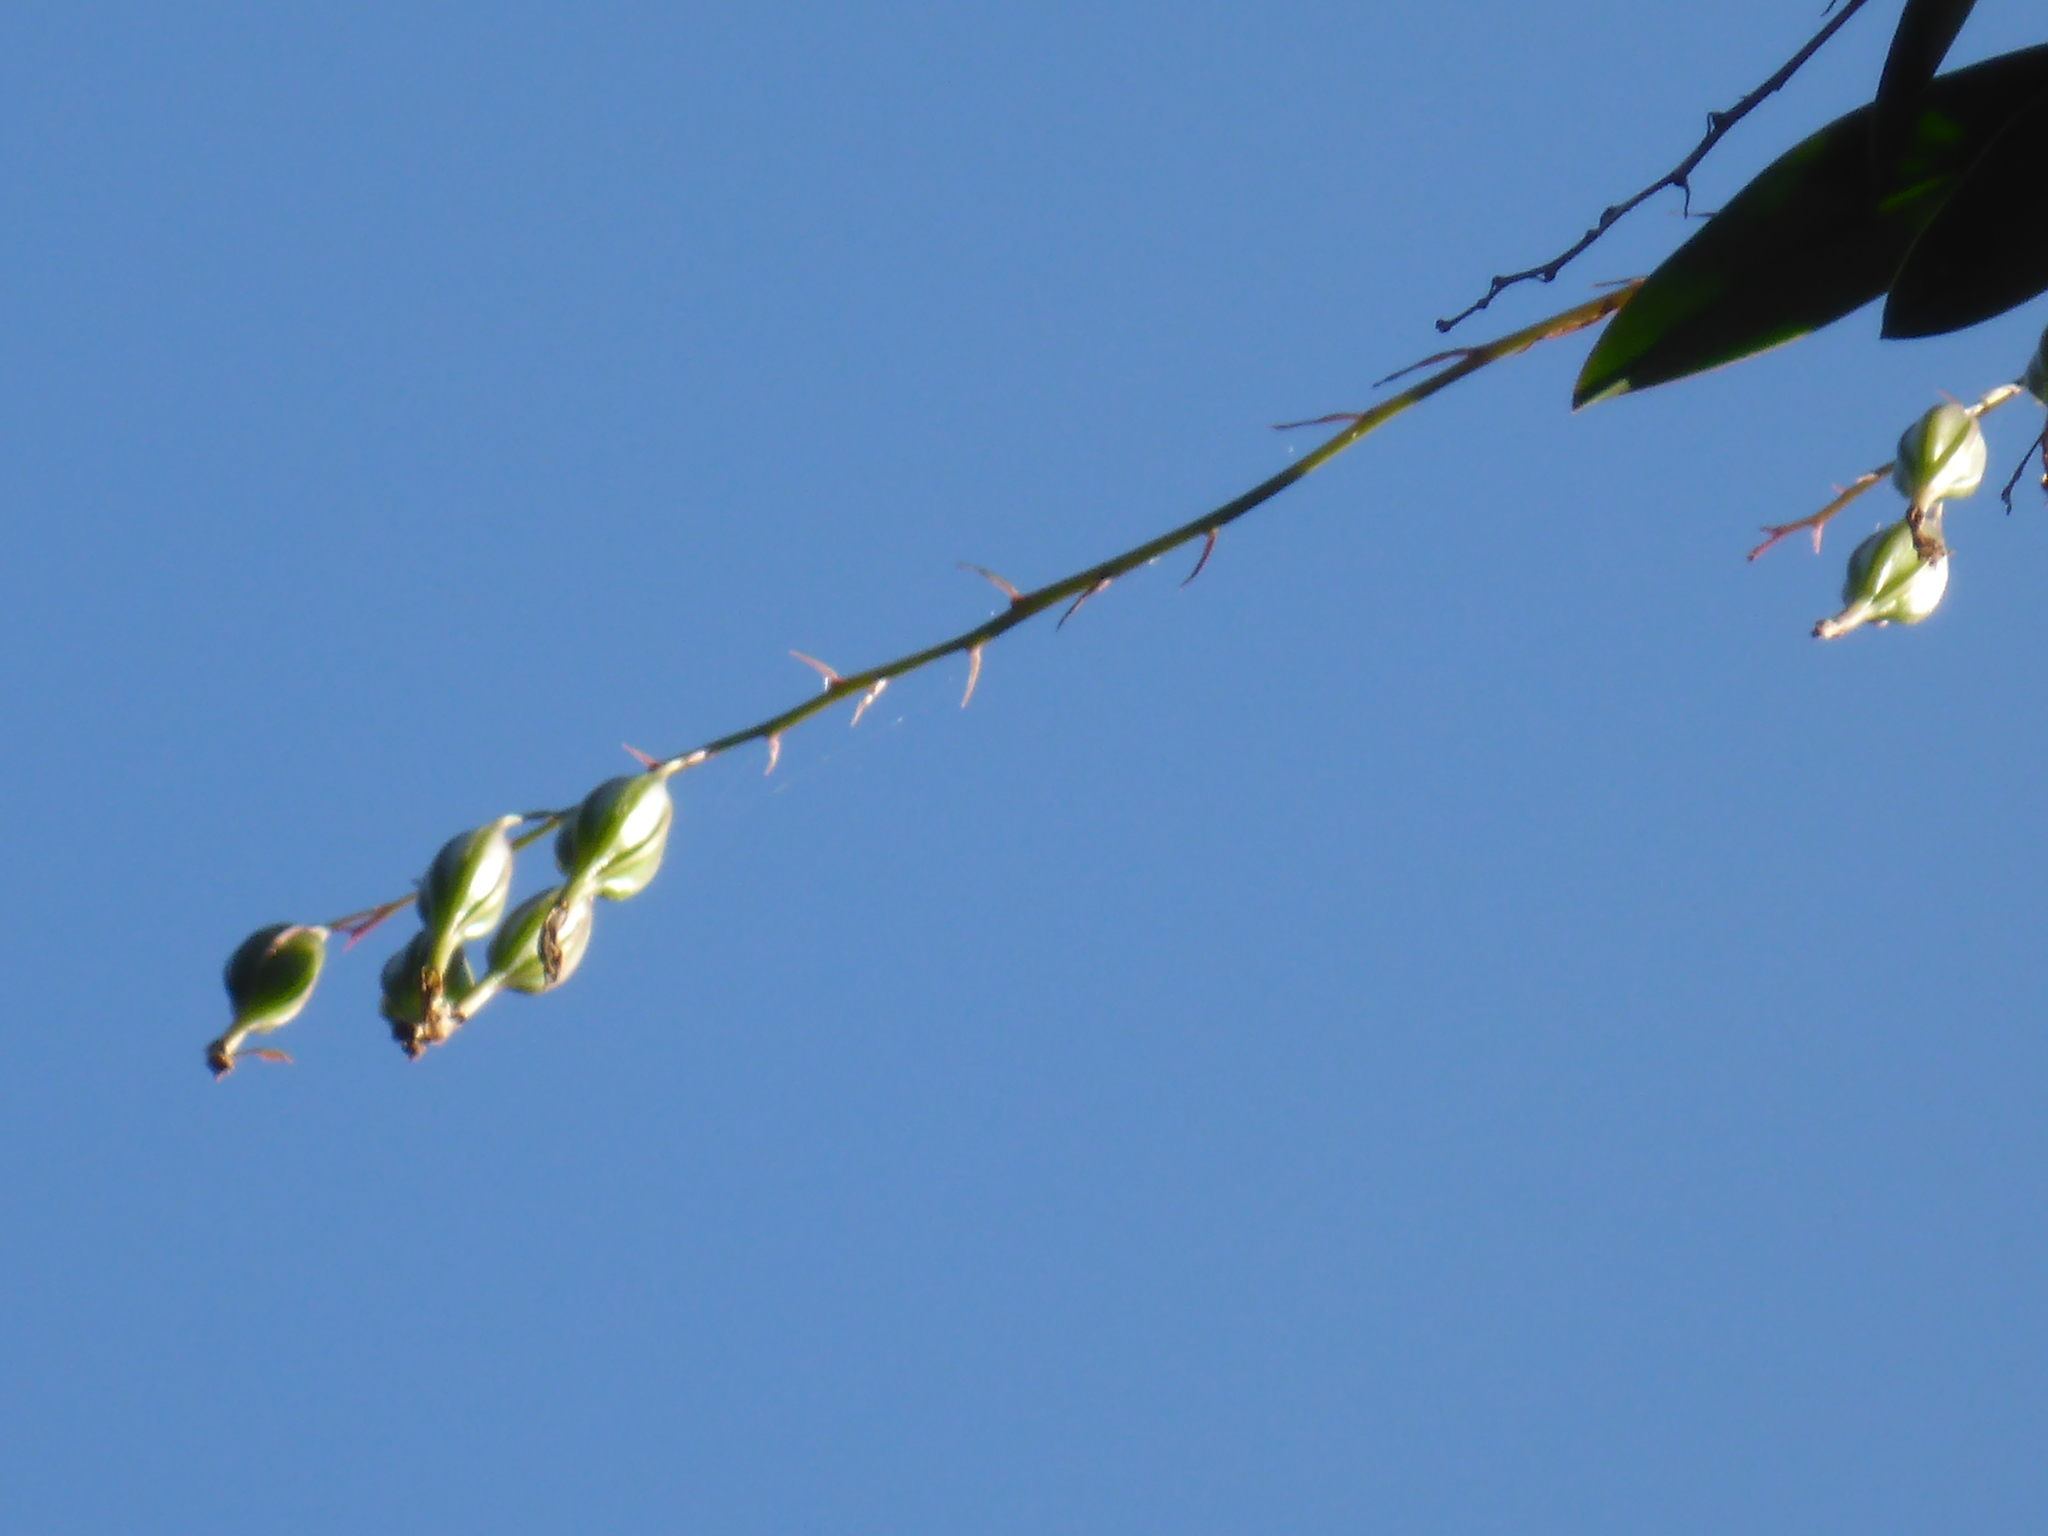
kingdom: Plantae
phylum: Tracheophyta
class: Liliopsida
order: Asparagales
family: Orchidaceae
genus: Epidendrum
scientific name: Epidendrum conopseum
